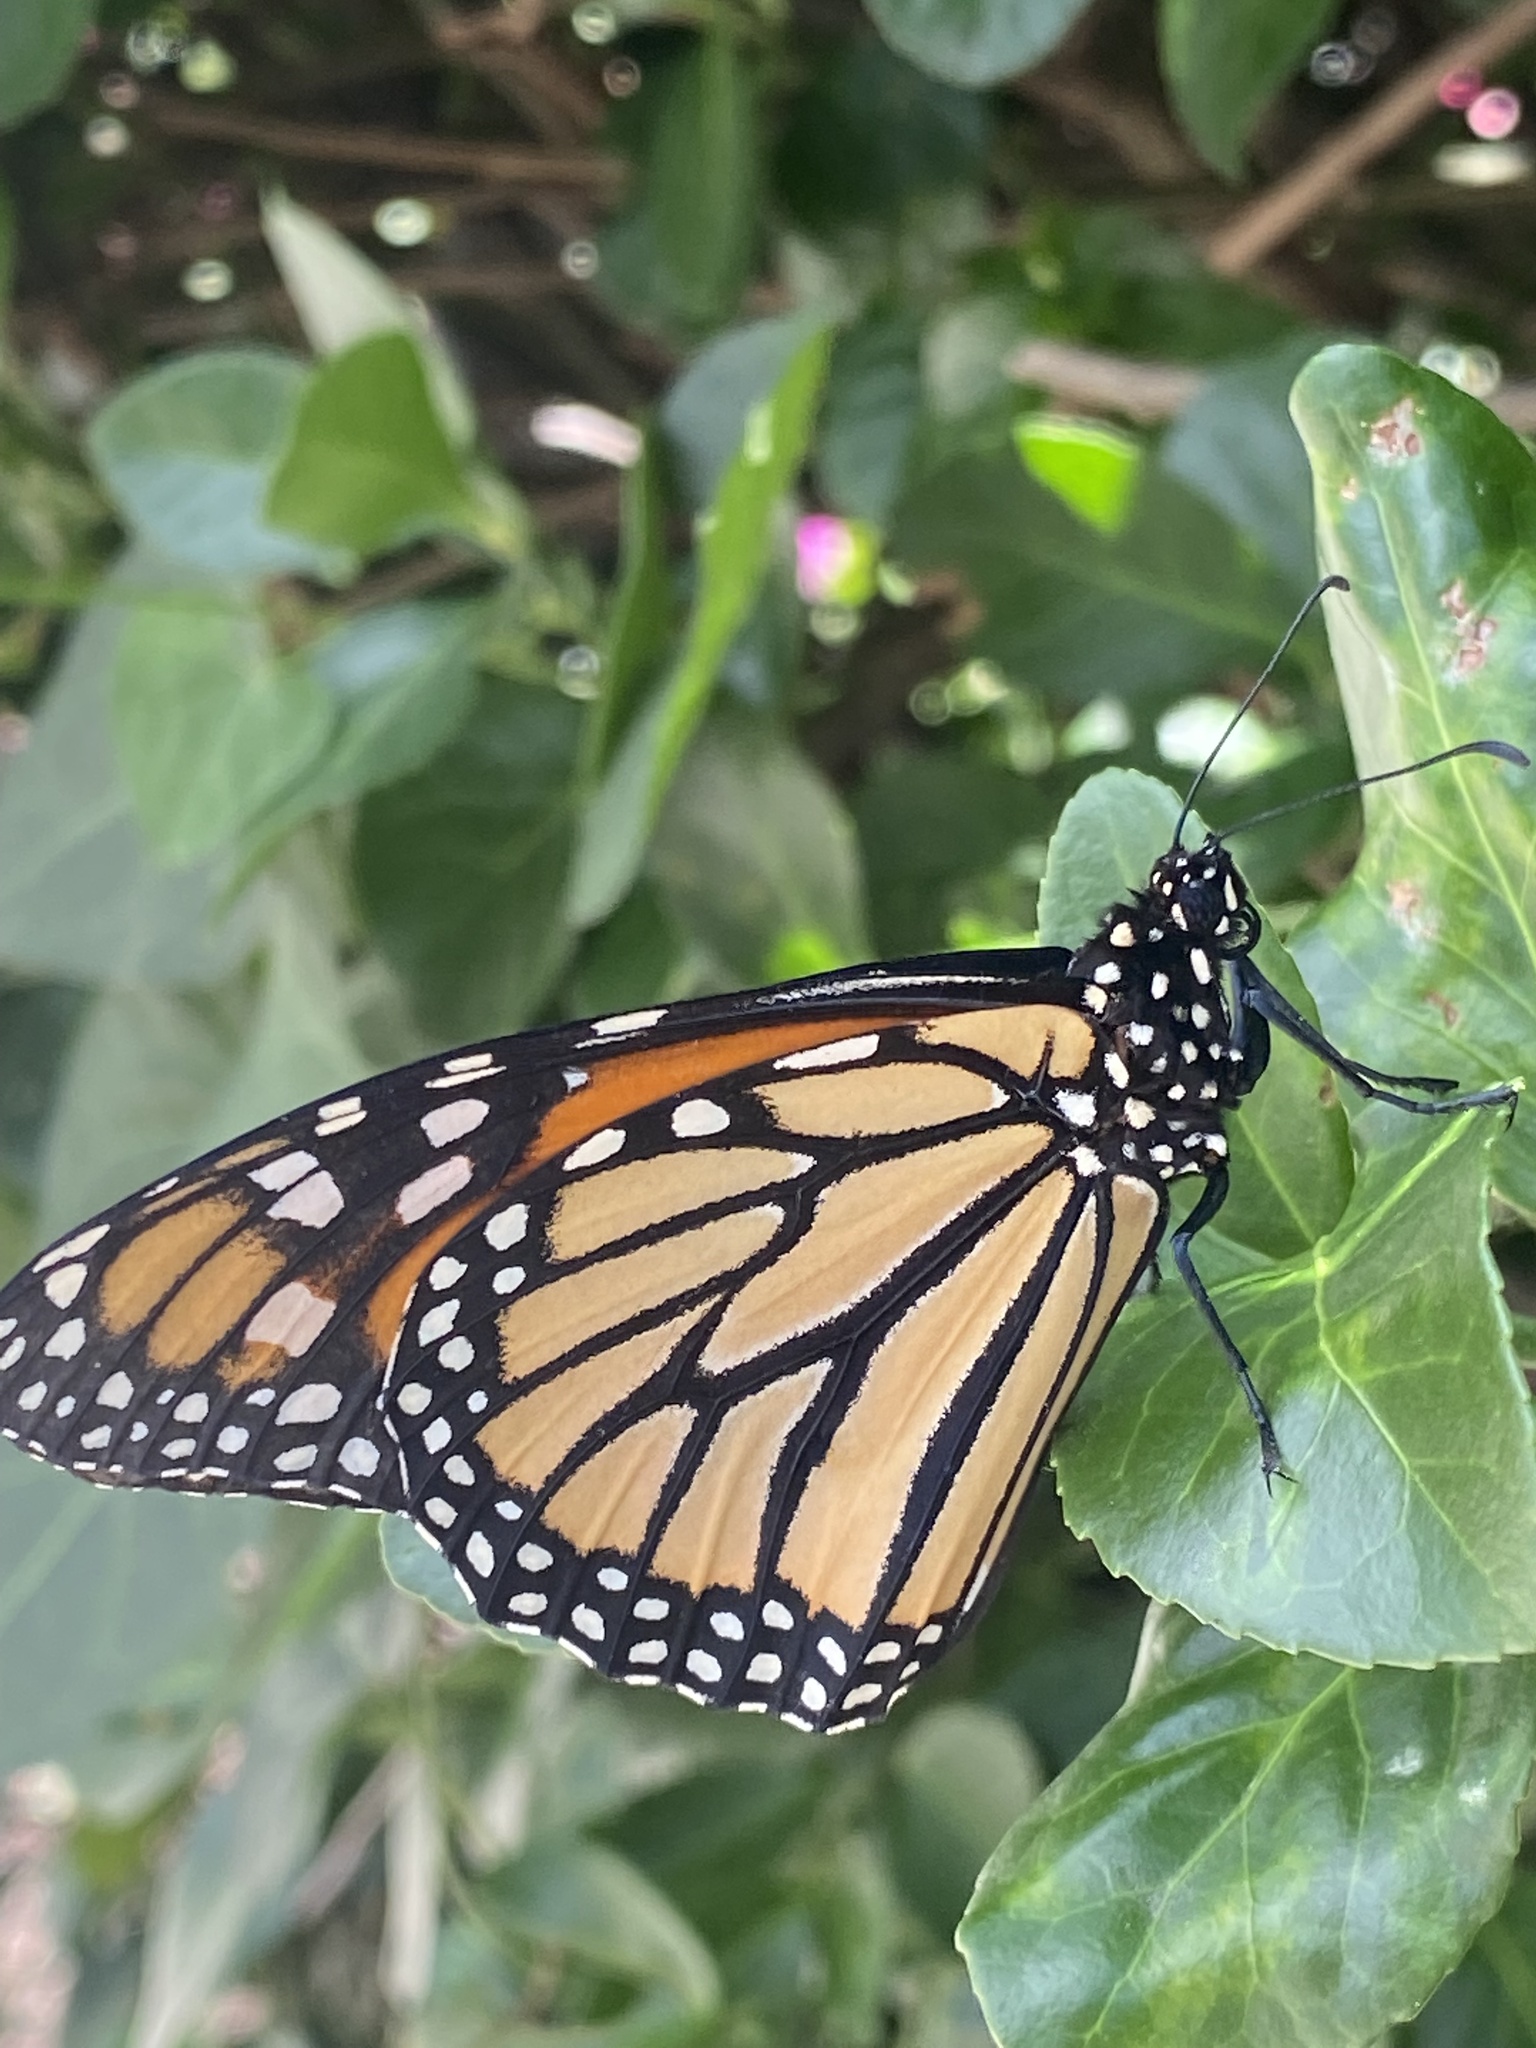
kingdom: Animalia
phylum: Arthropoda
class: Insecta
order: Lepidoptera
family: Nymphalidae
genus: Danaus
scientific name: Danaus plexippus
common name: Monarch
